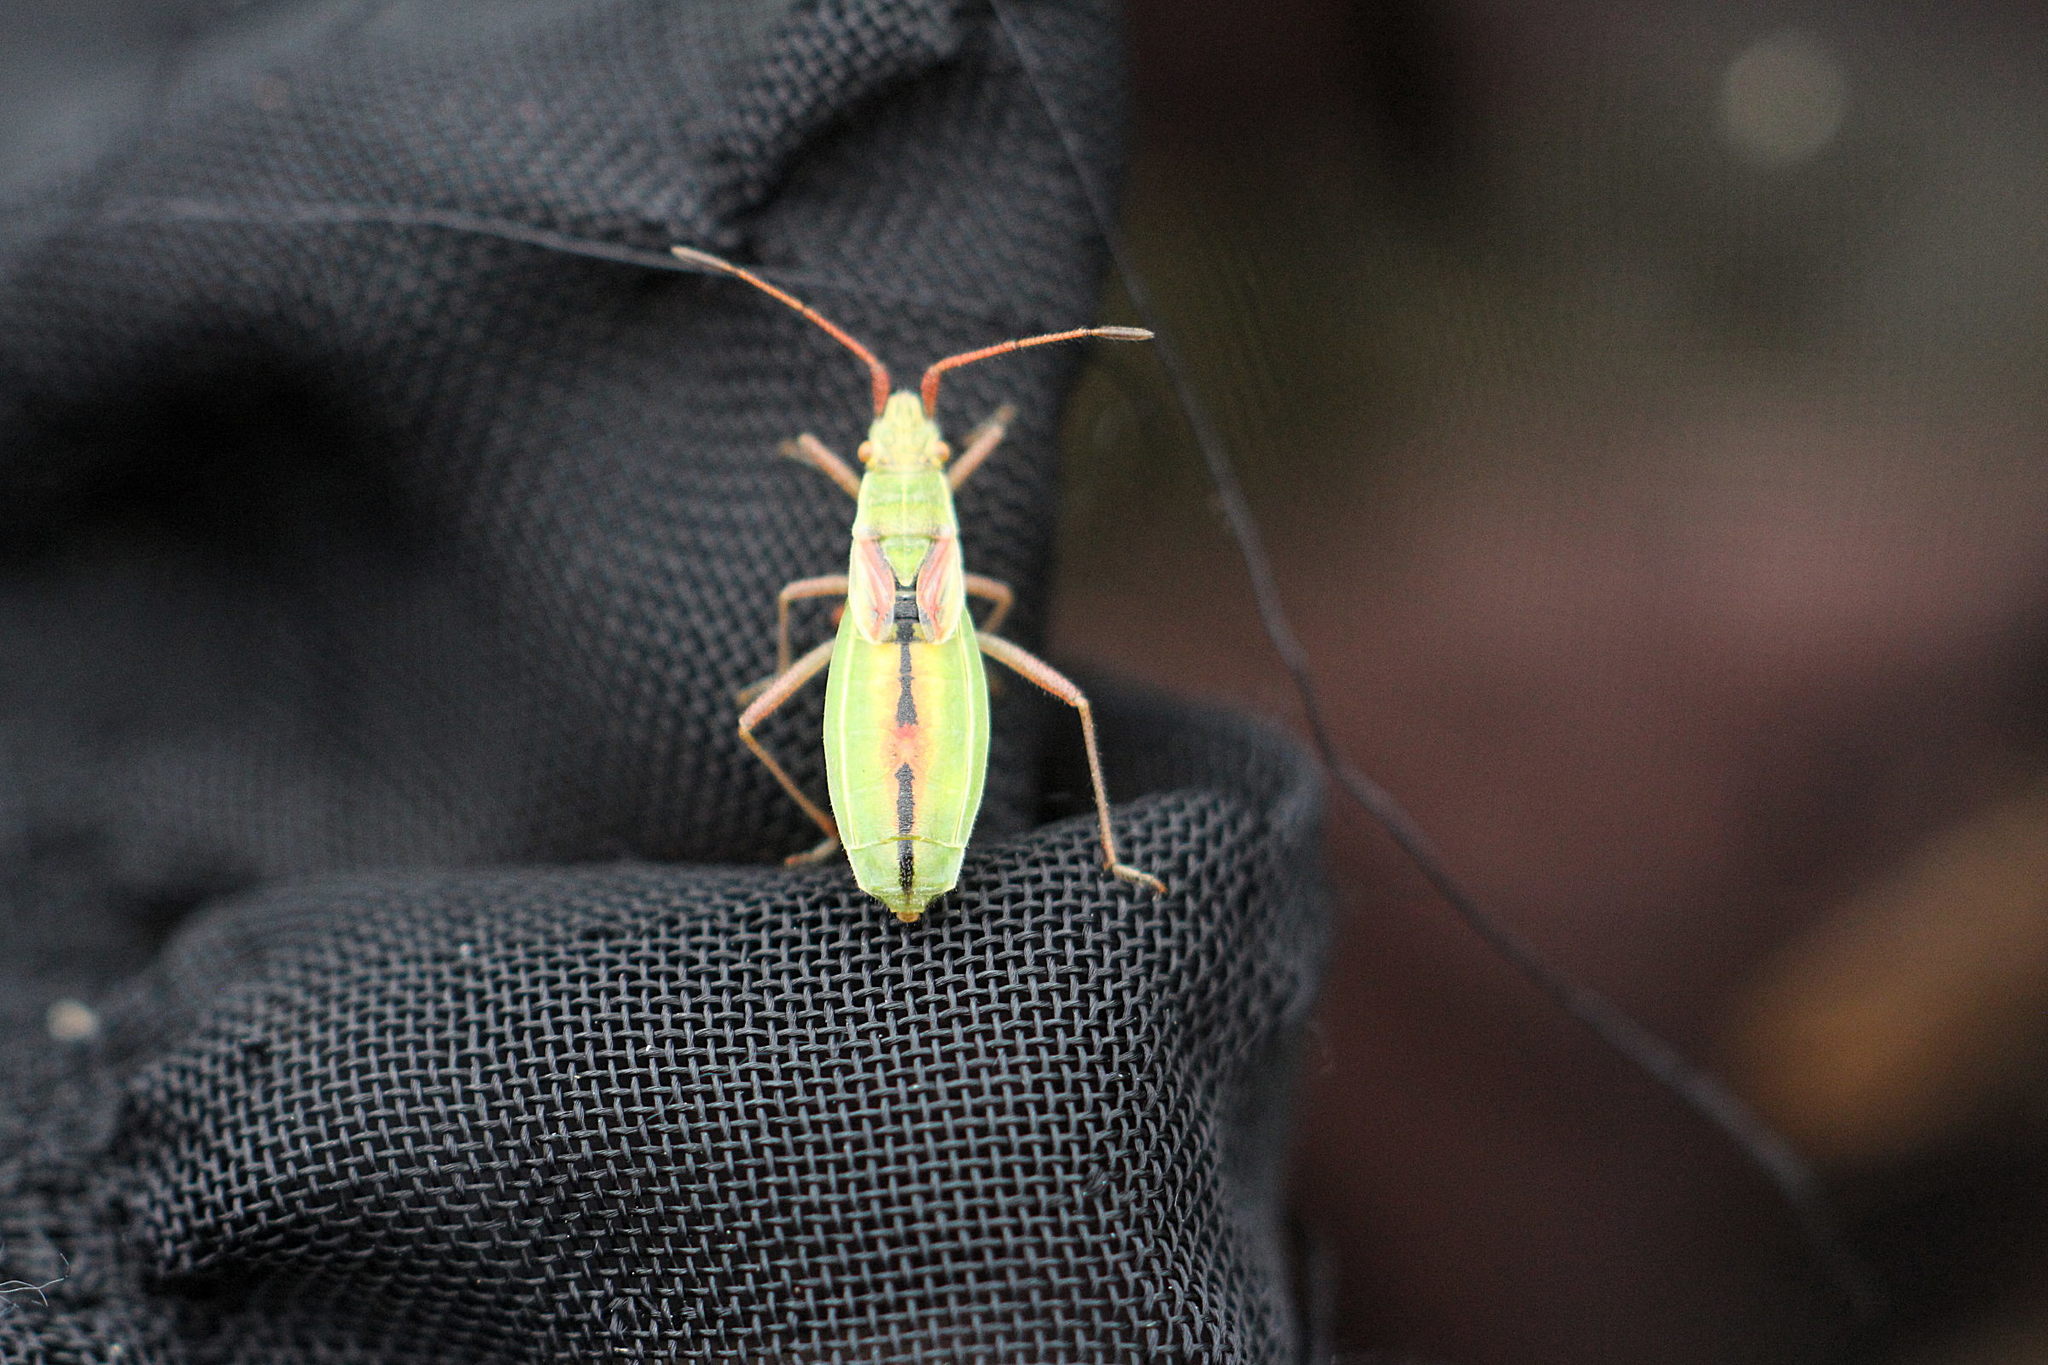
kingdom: Animalia
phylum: Arthropoda
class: Insecta
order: Hemiptera
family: Rhopalidae
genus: Myrmus
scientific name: Myrmus miriformis
